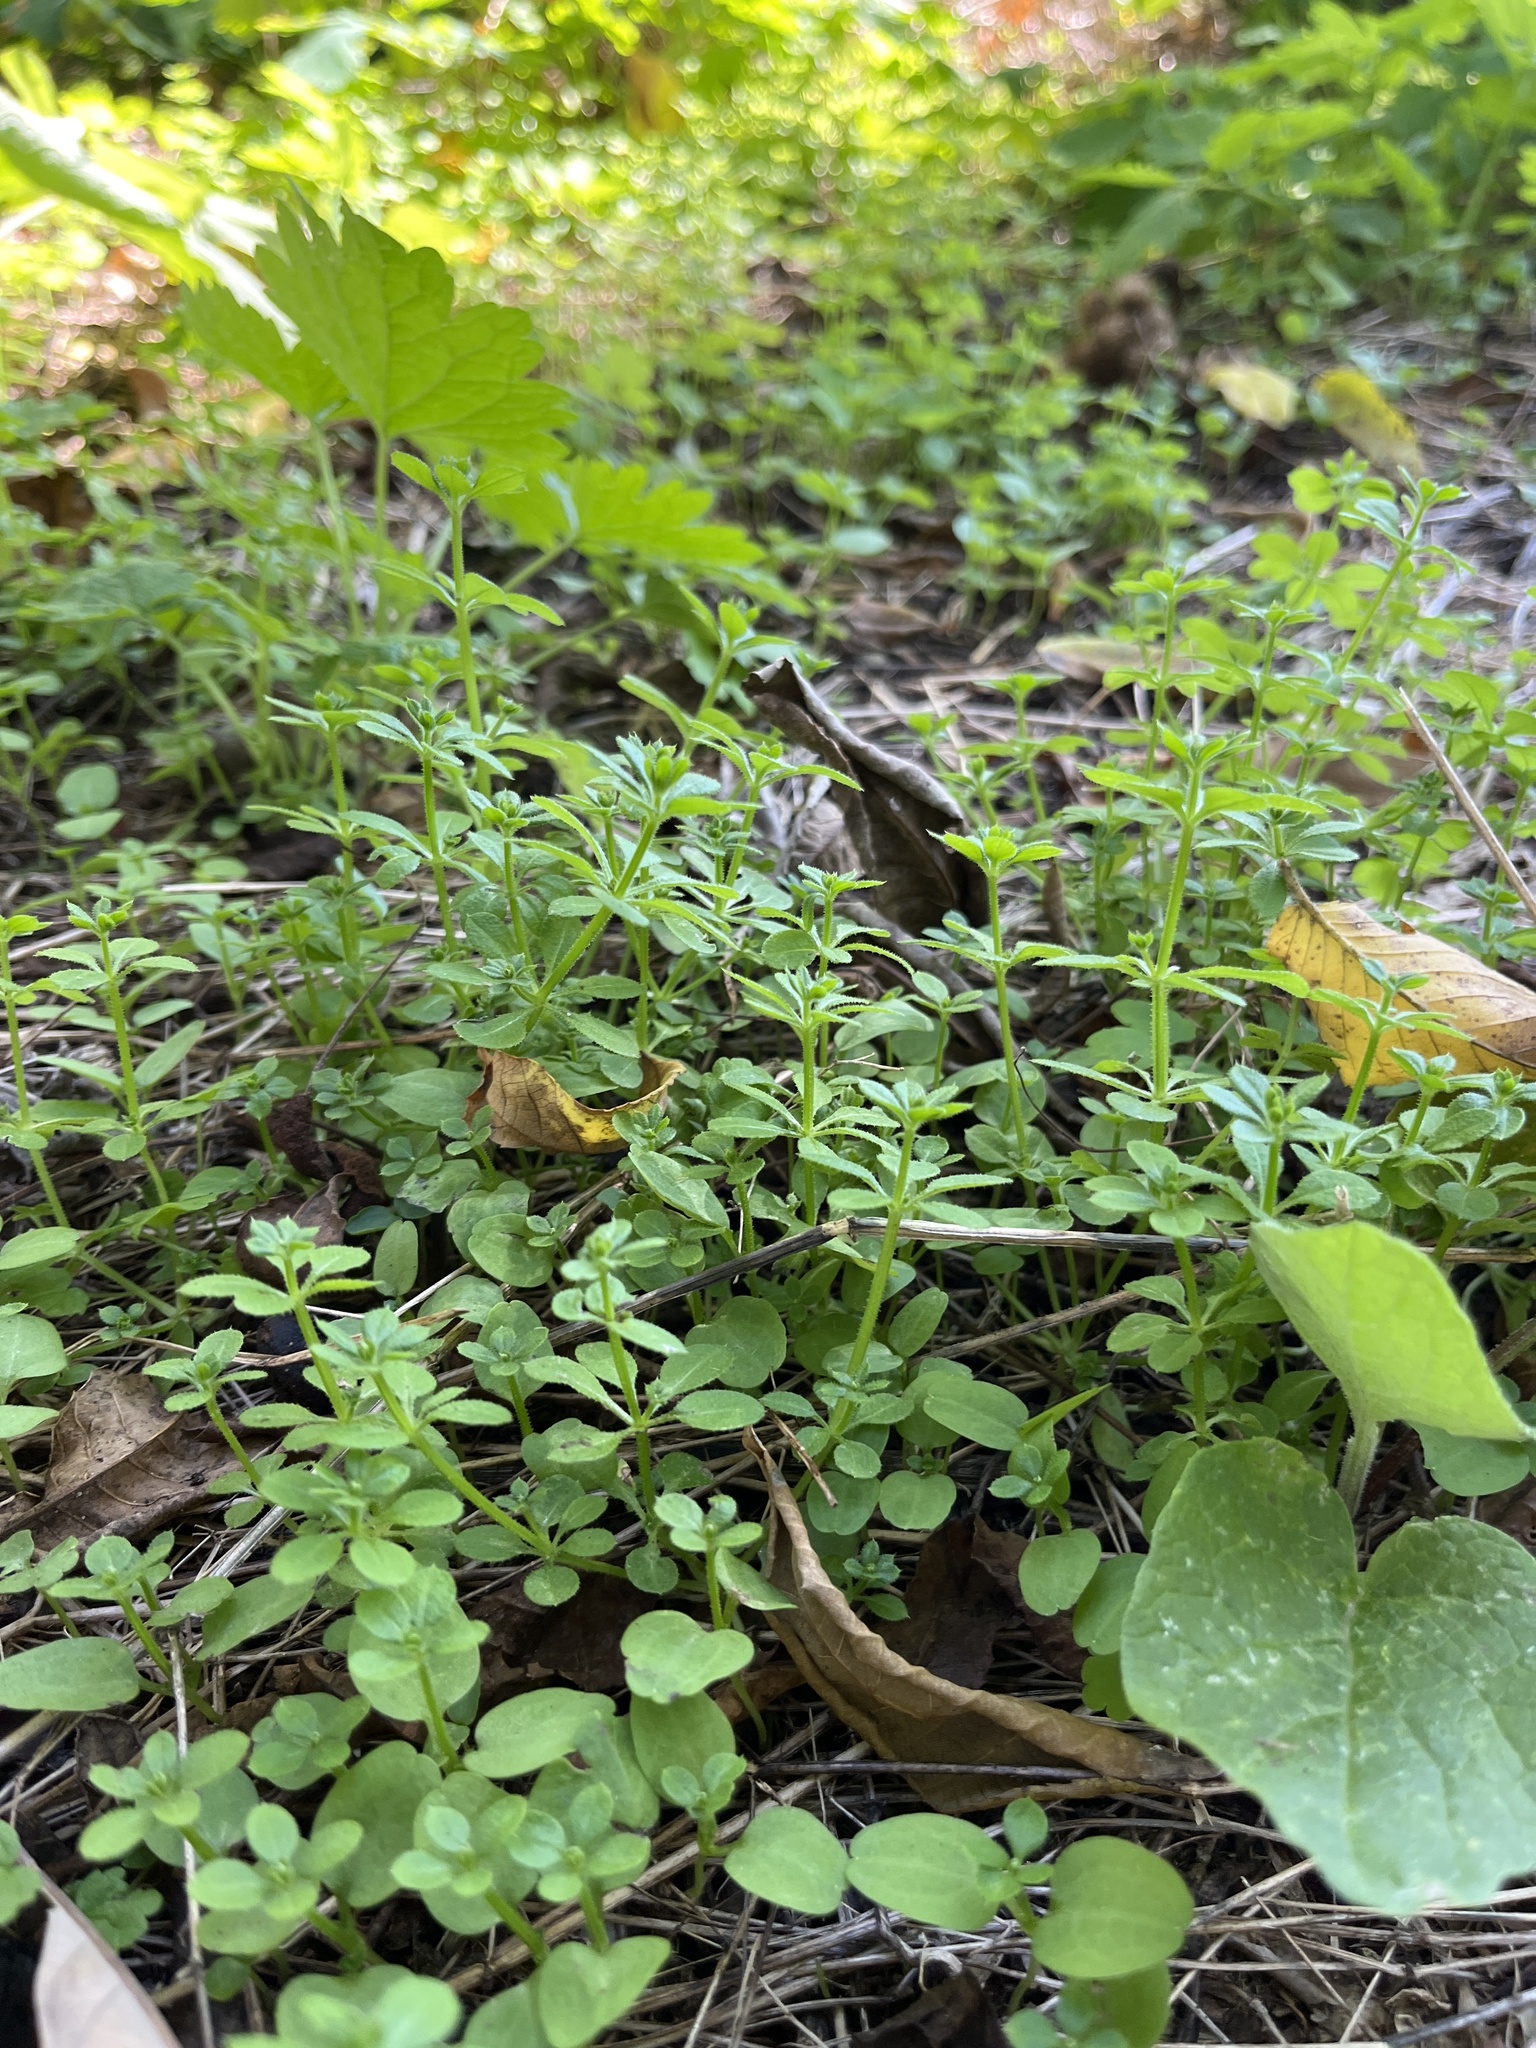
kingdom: Plantae
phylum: Tracheophyta
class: Magnoliopsida
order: Gentianales
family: Rubiaceae
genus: Galium
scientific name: Galium aparine
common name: Cleavers
